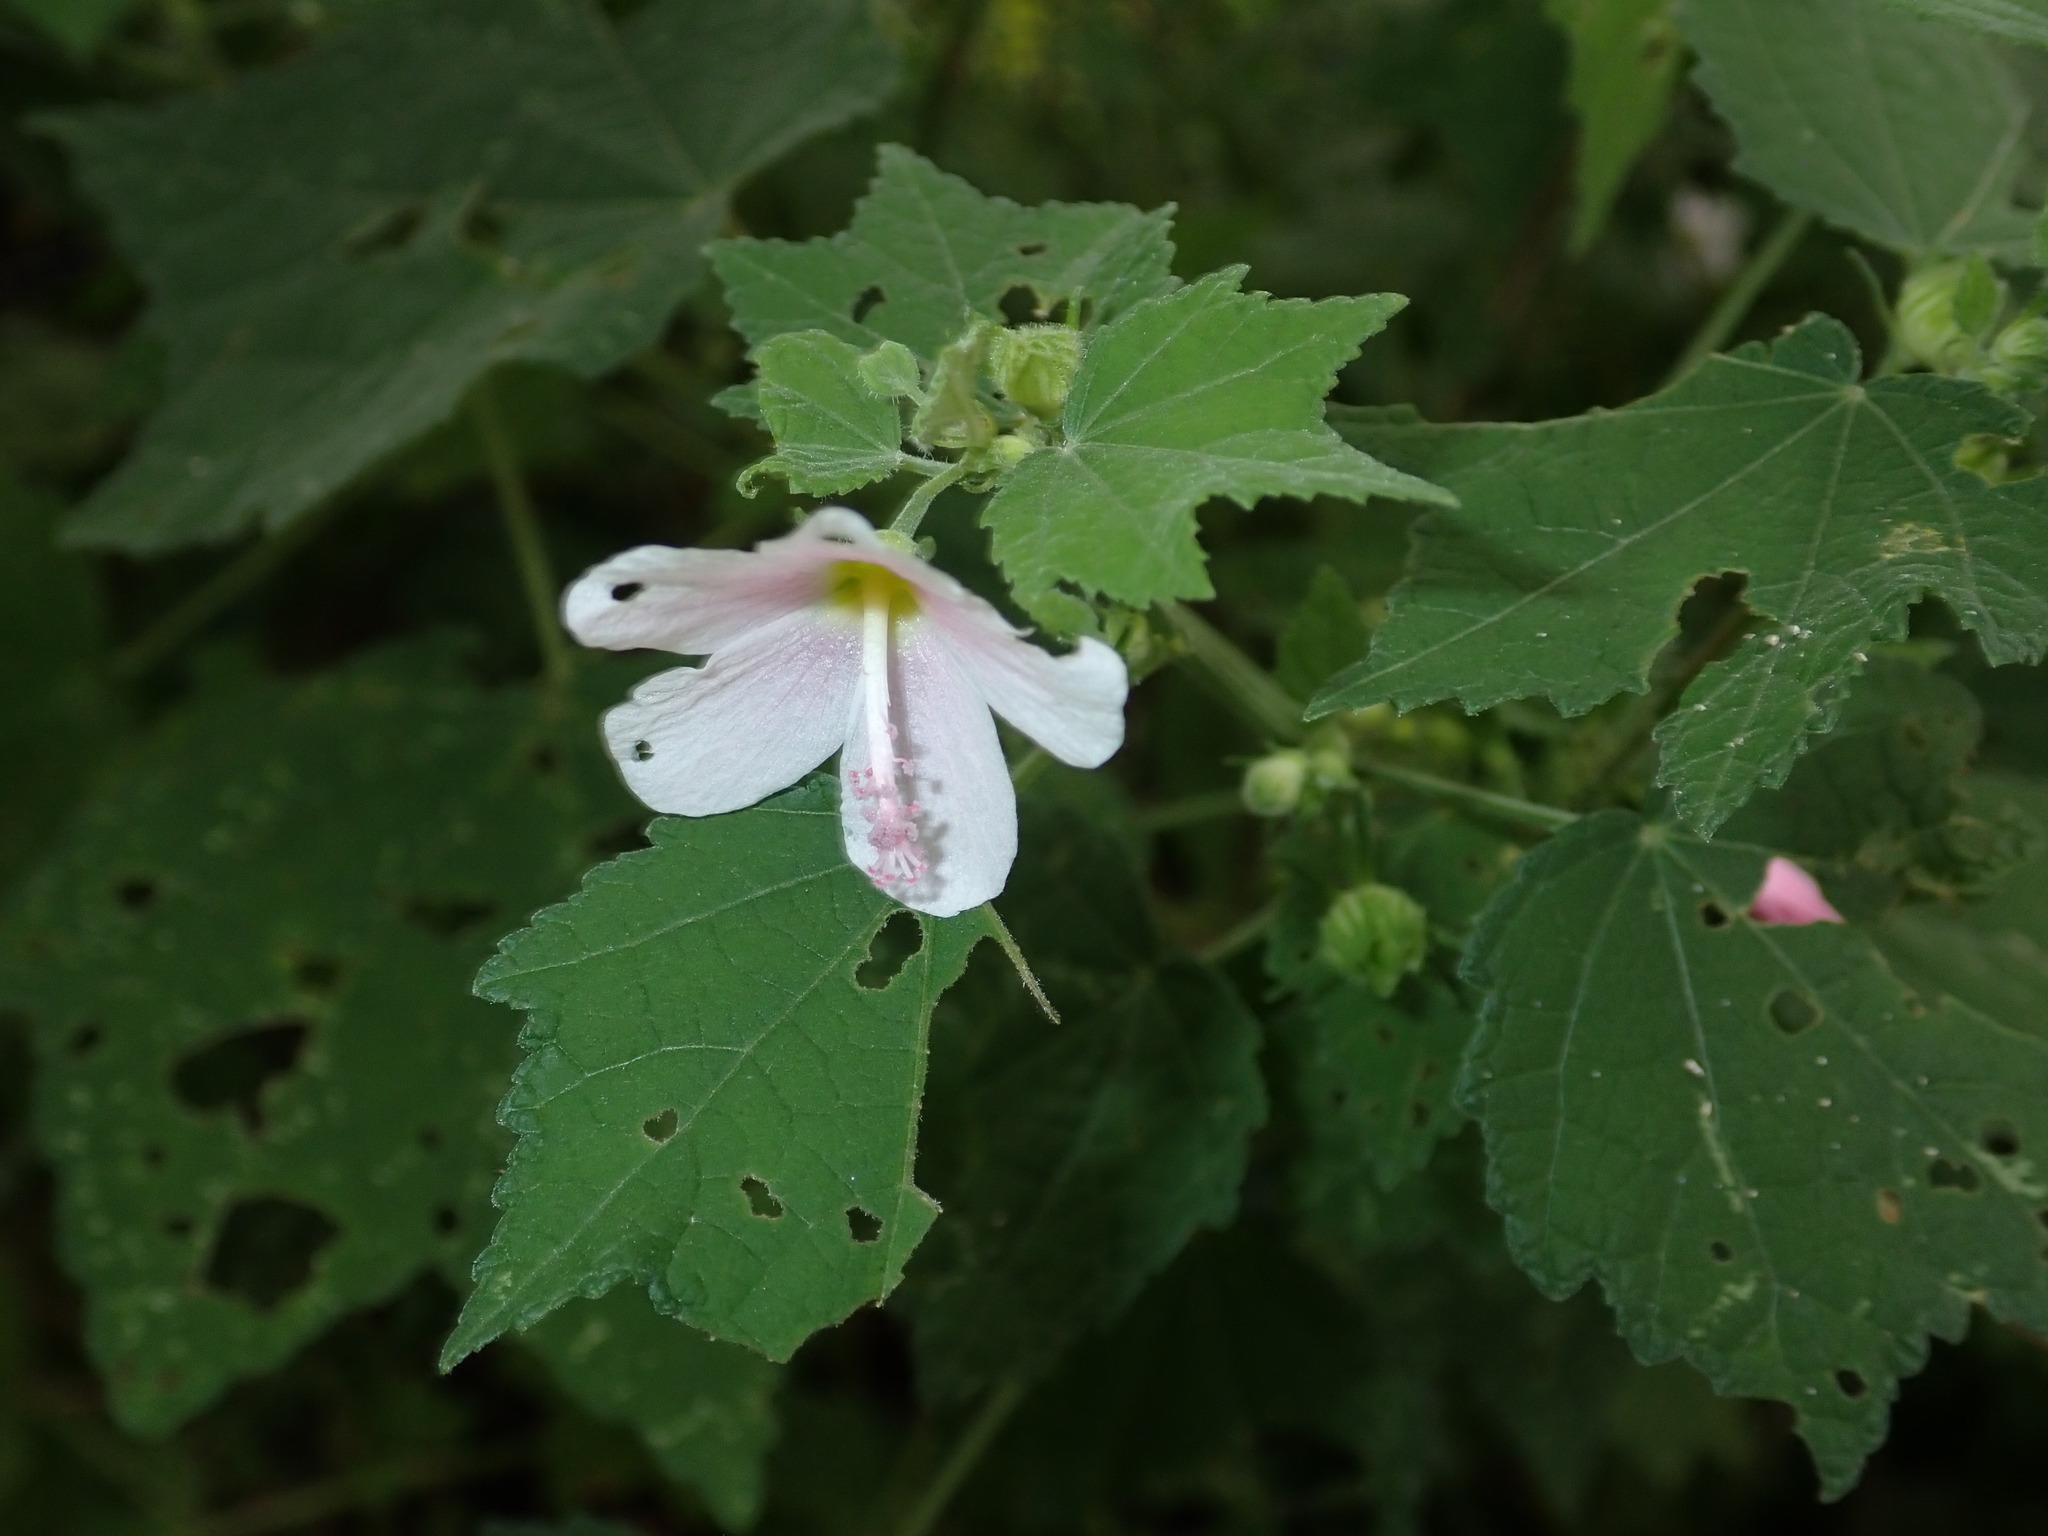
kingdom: Plantae
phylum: Tracheophyta
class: Magnoliopsida
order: Malvales
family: Malvaceae
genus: Pavonia
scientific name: Pavonia columella
